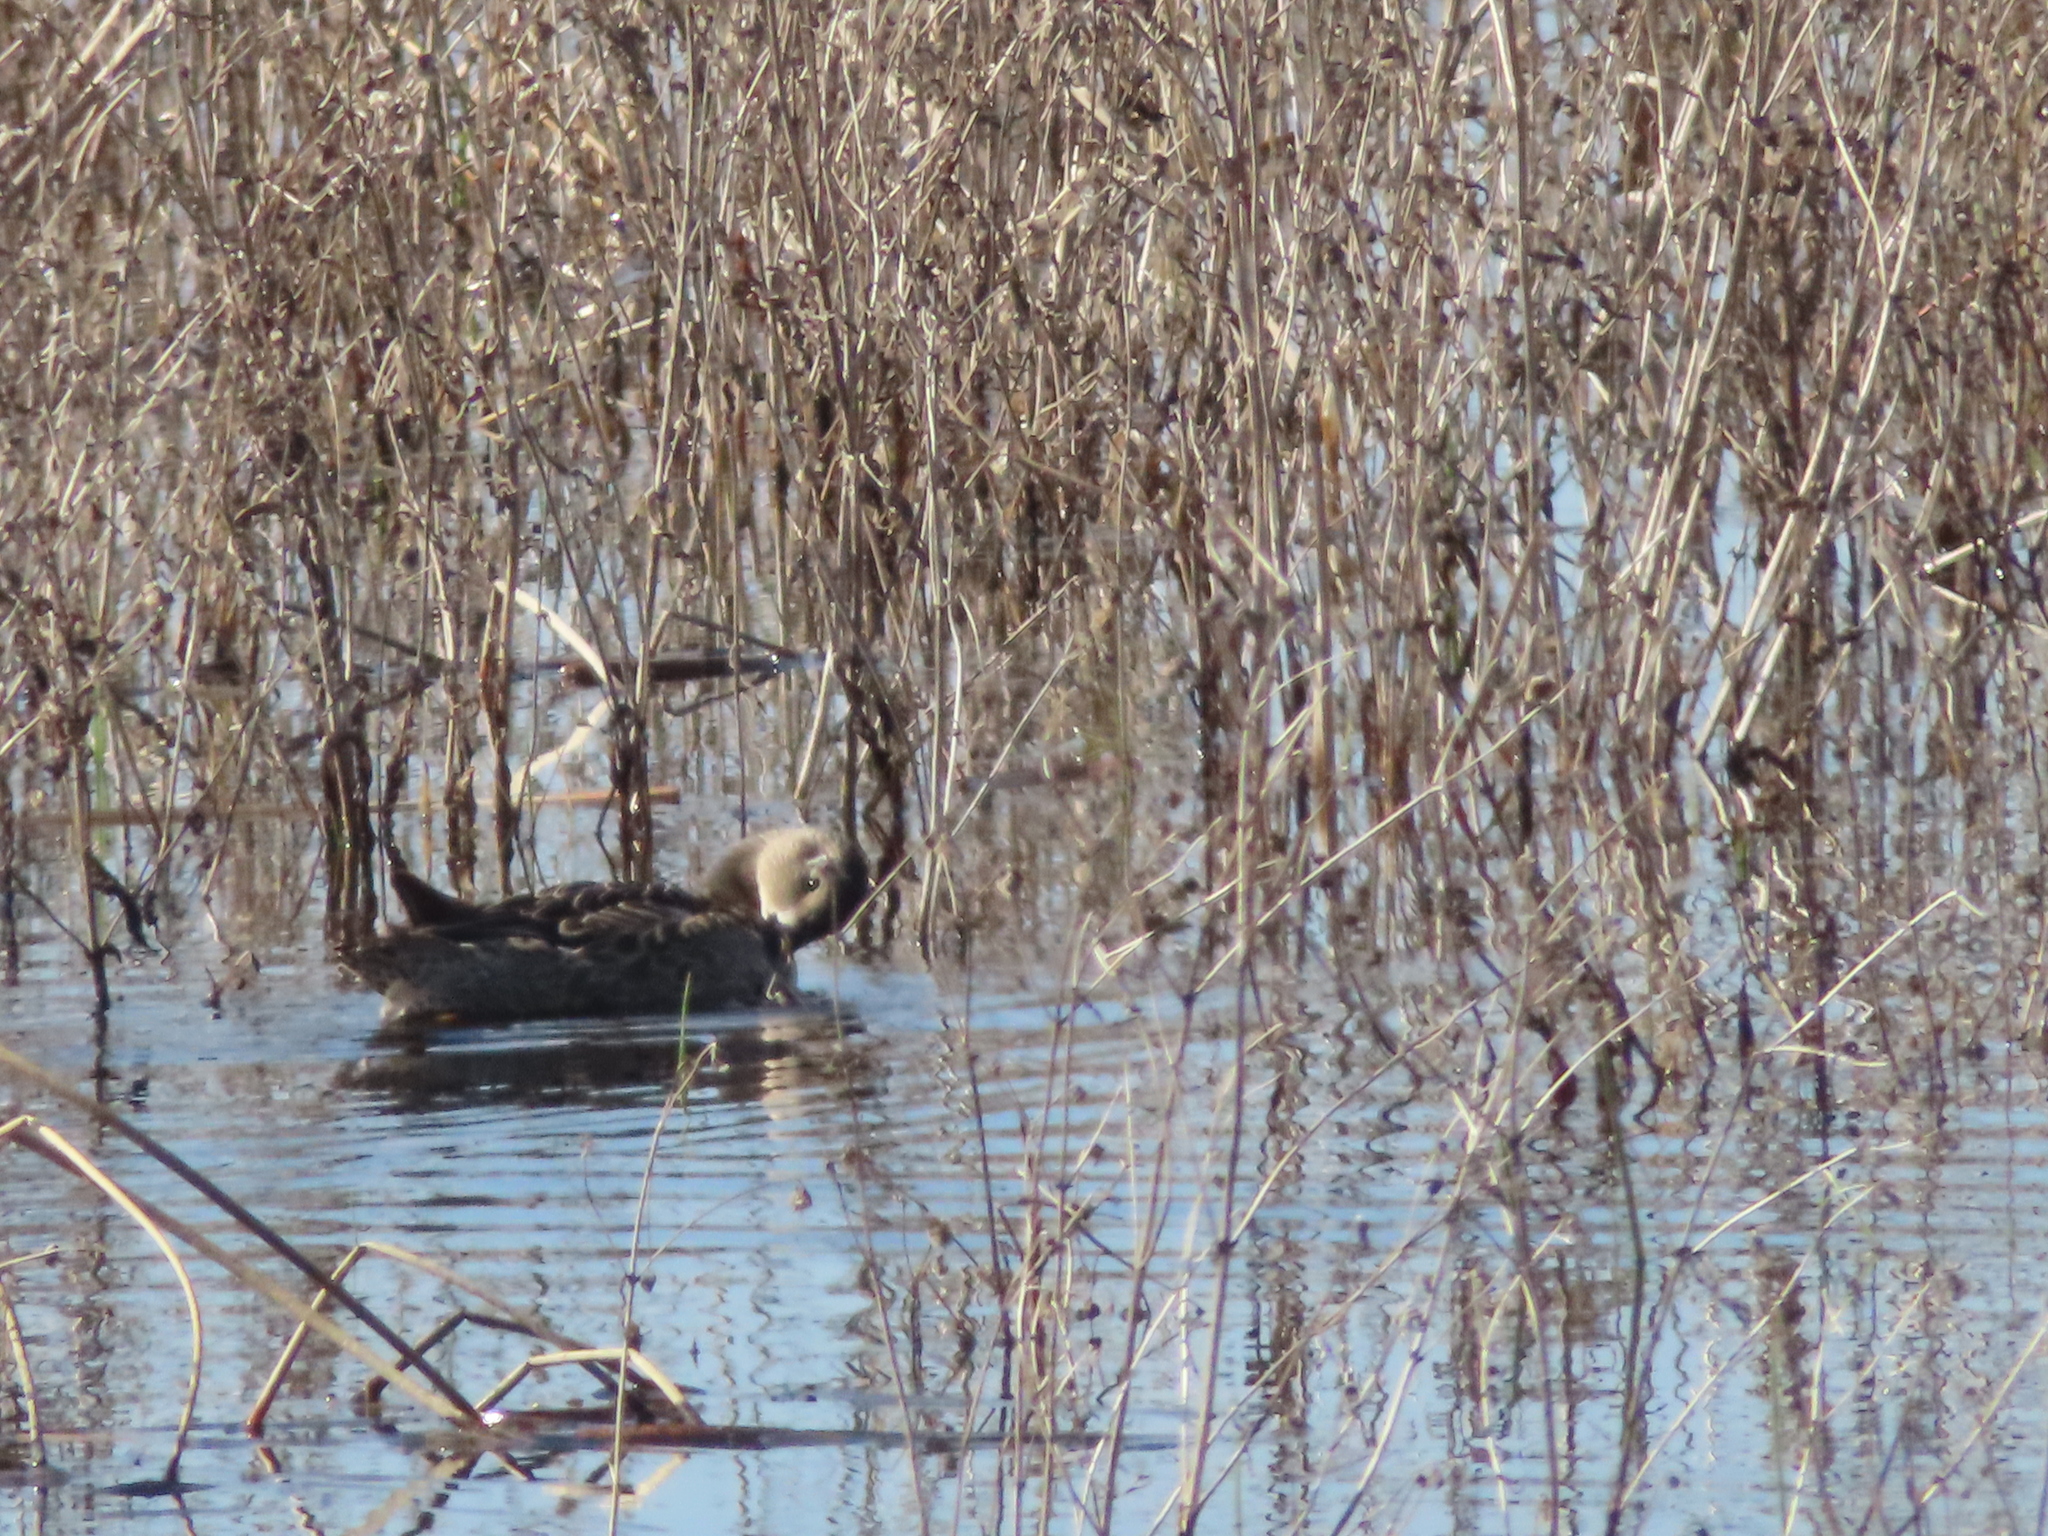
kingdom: Animalia
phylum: Chordata
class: Aves
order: Anseriformes
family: Anatidae
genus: Spatula
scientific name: Spatula discors
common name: Blue-winged teal
